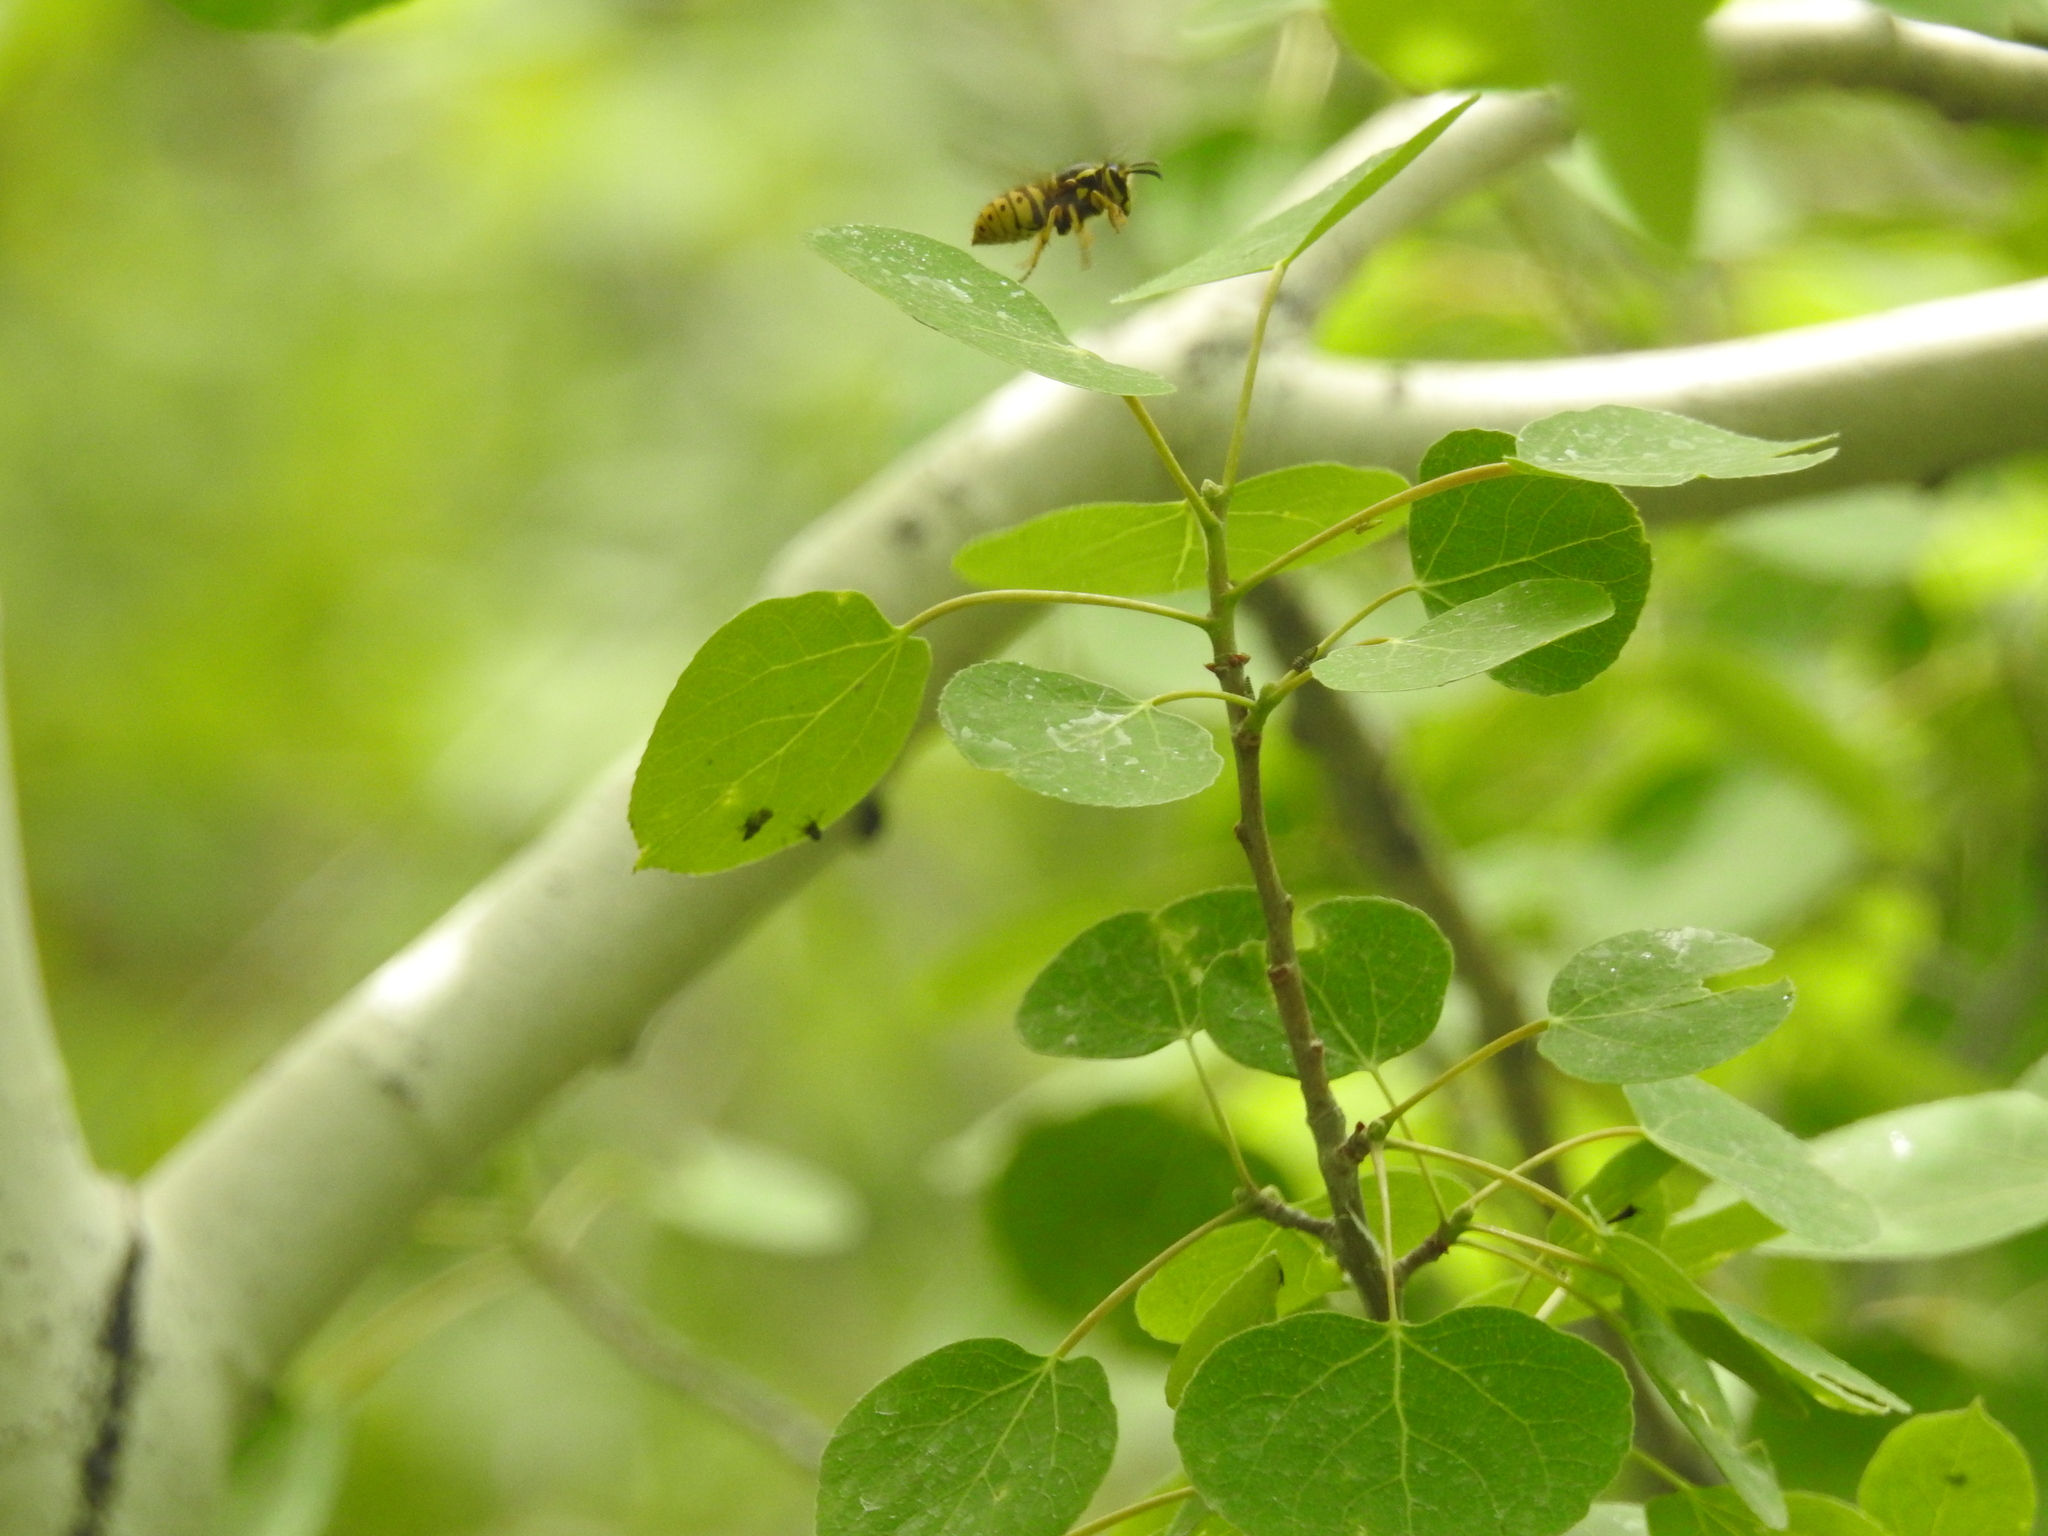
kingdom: Animalia
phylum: Arthropoda
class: Insecta
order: Hymenoptera
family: Vespidae
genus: Dolichovespula
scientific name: Dolichovespula arenaria
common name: Aerial yellowjacket
